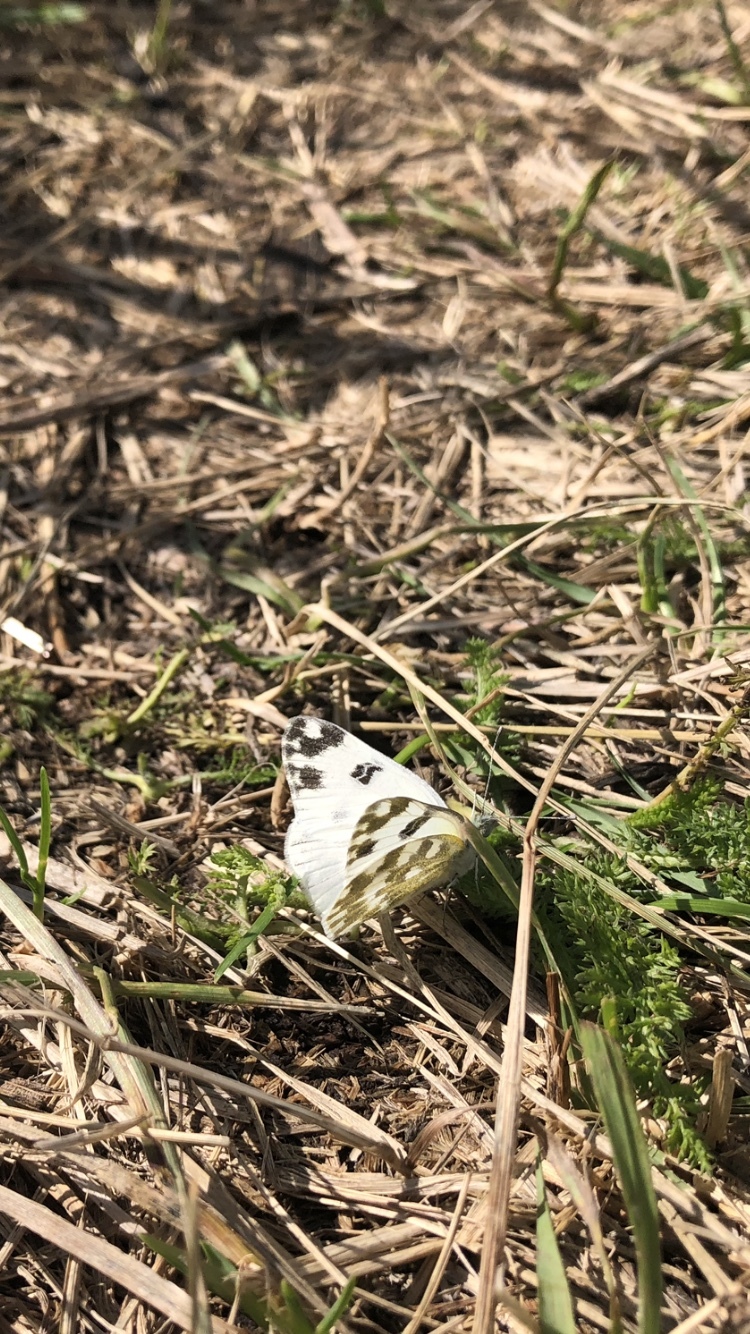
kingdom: Animalia
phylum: Arthropoda
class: Insecta
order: Lepidoptera
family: Pieridae
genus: Pontia
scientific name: Pontia edusa
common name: Eastern bath white
